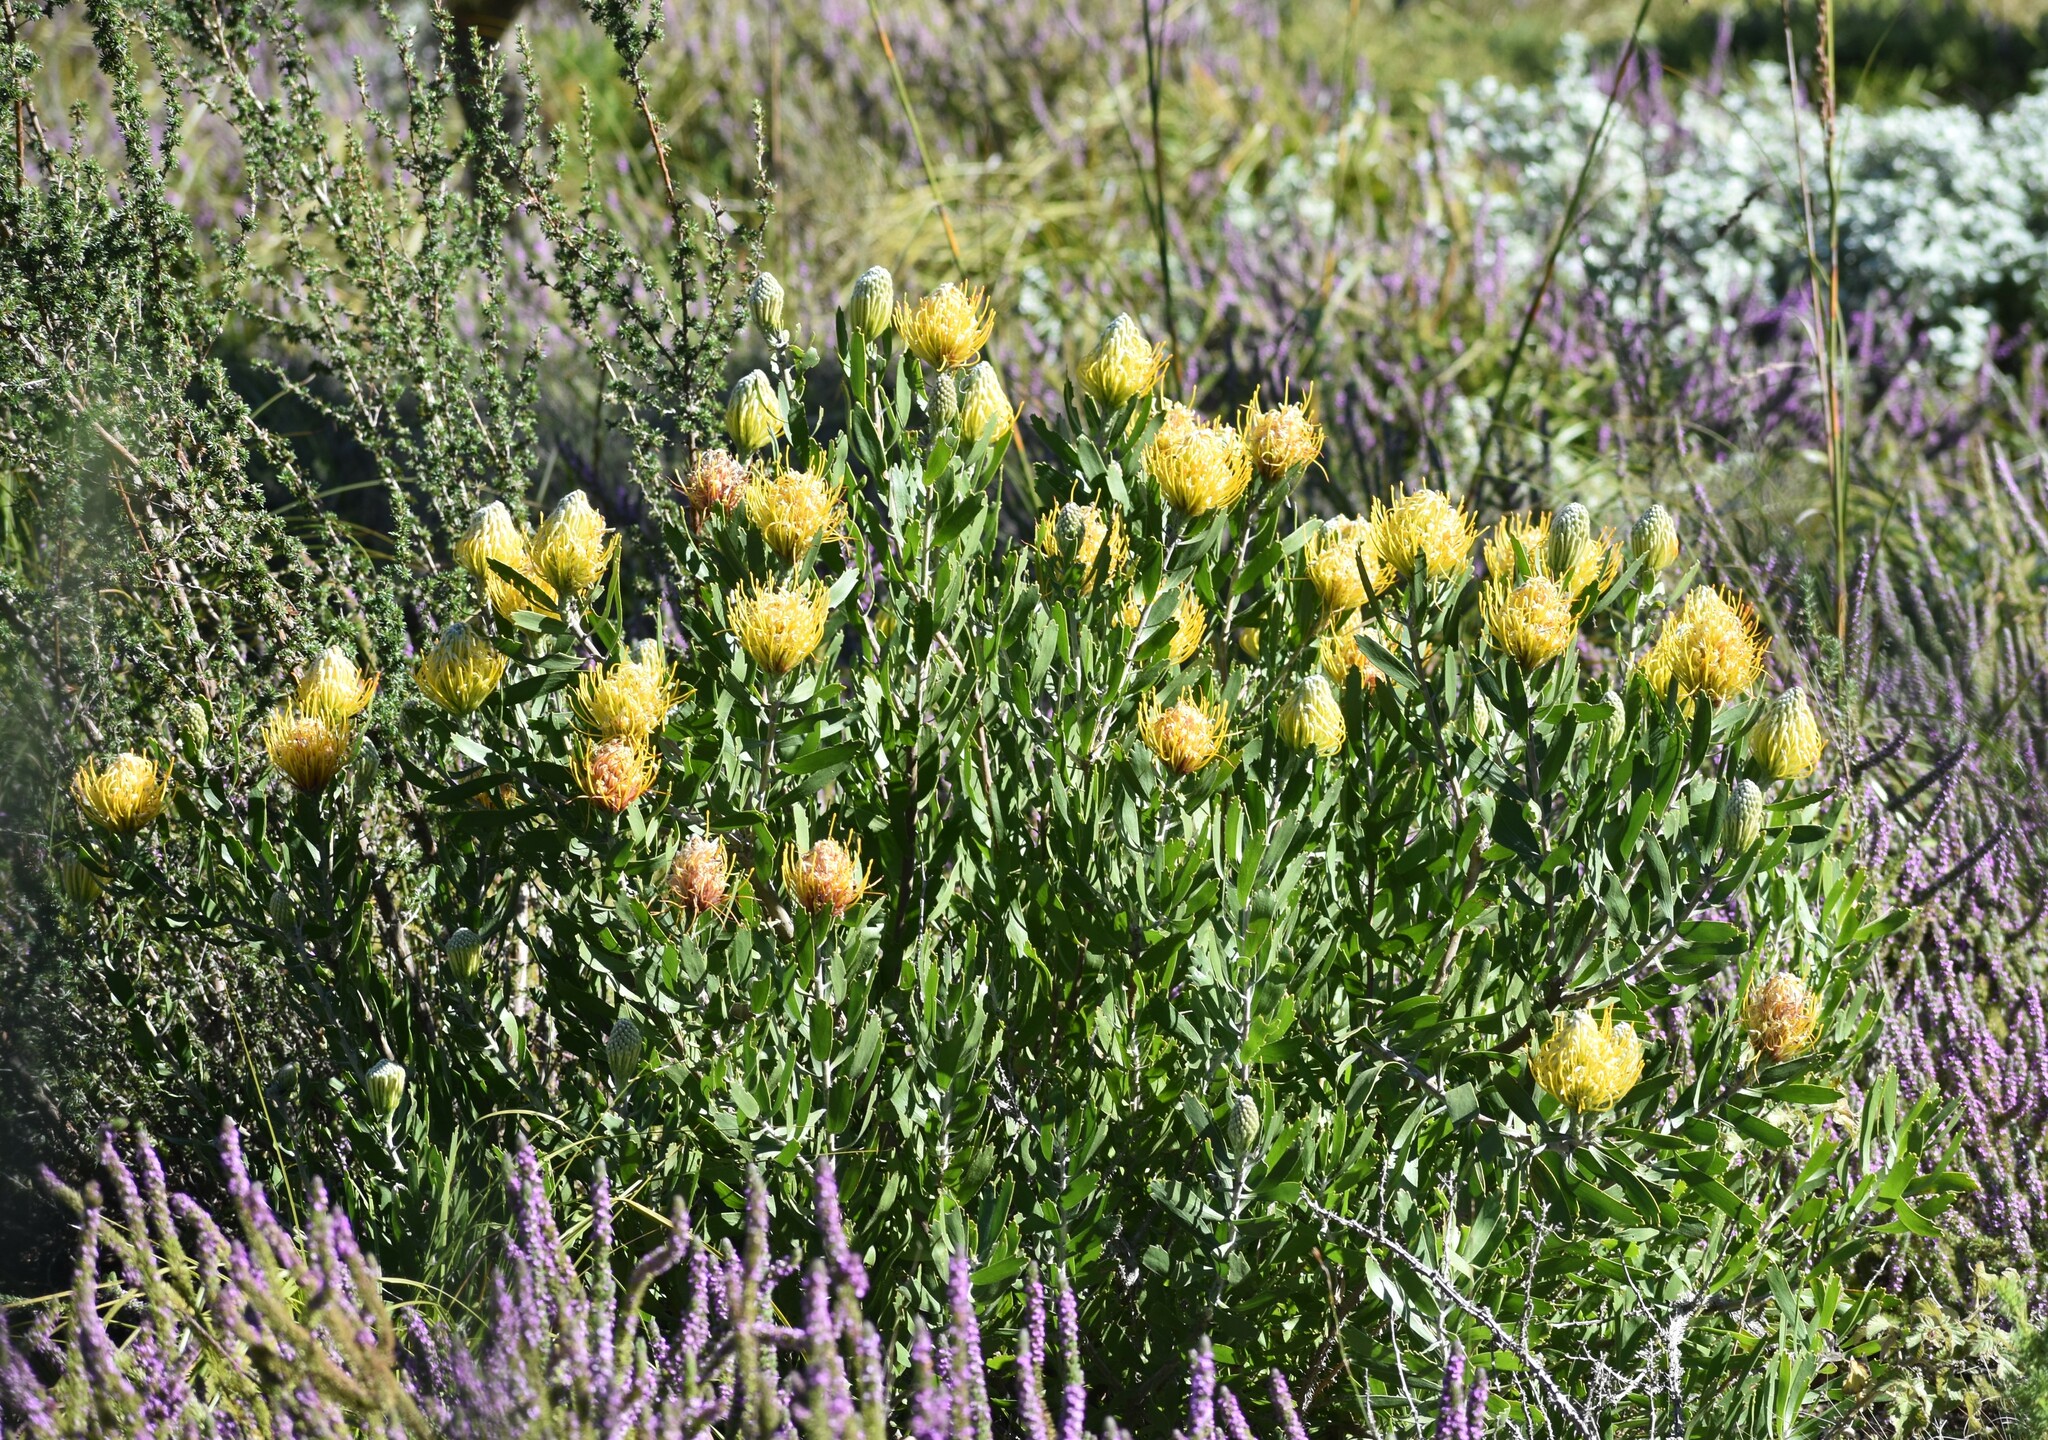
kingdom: Plantae
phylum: Tracheophyta
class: Magnoliopsida
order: Proteales
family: Proteaceae
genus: Leucospermum
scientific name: Leucospermum cuneiforme
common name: Common pincushion
